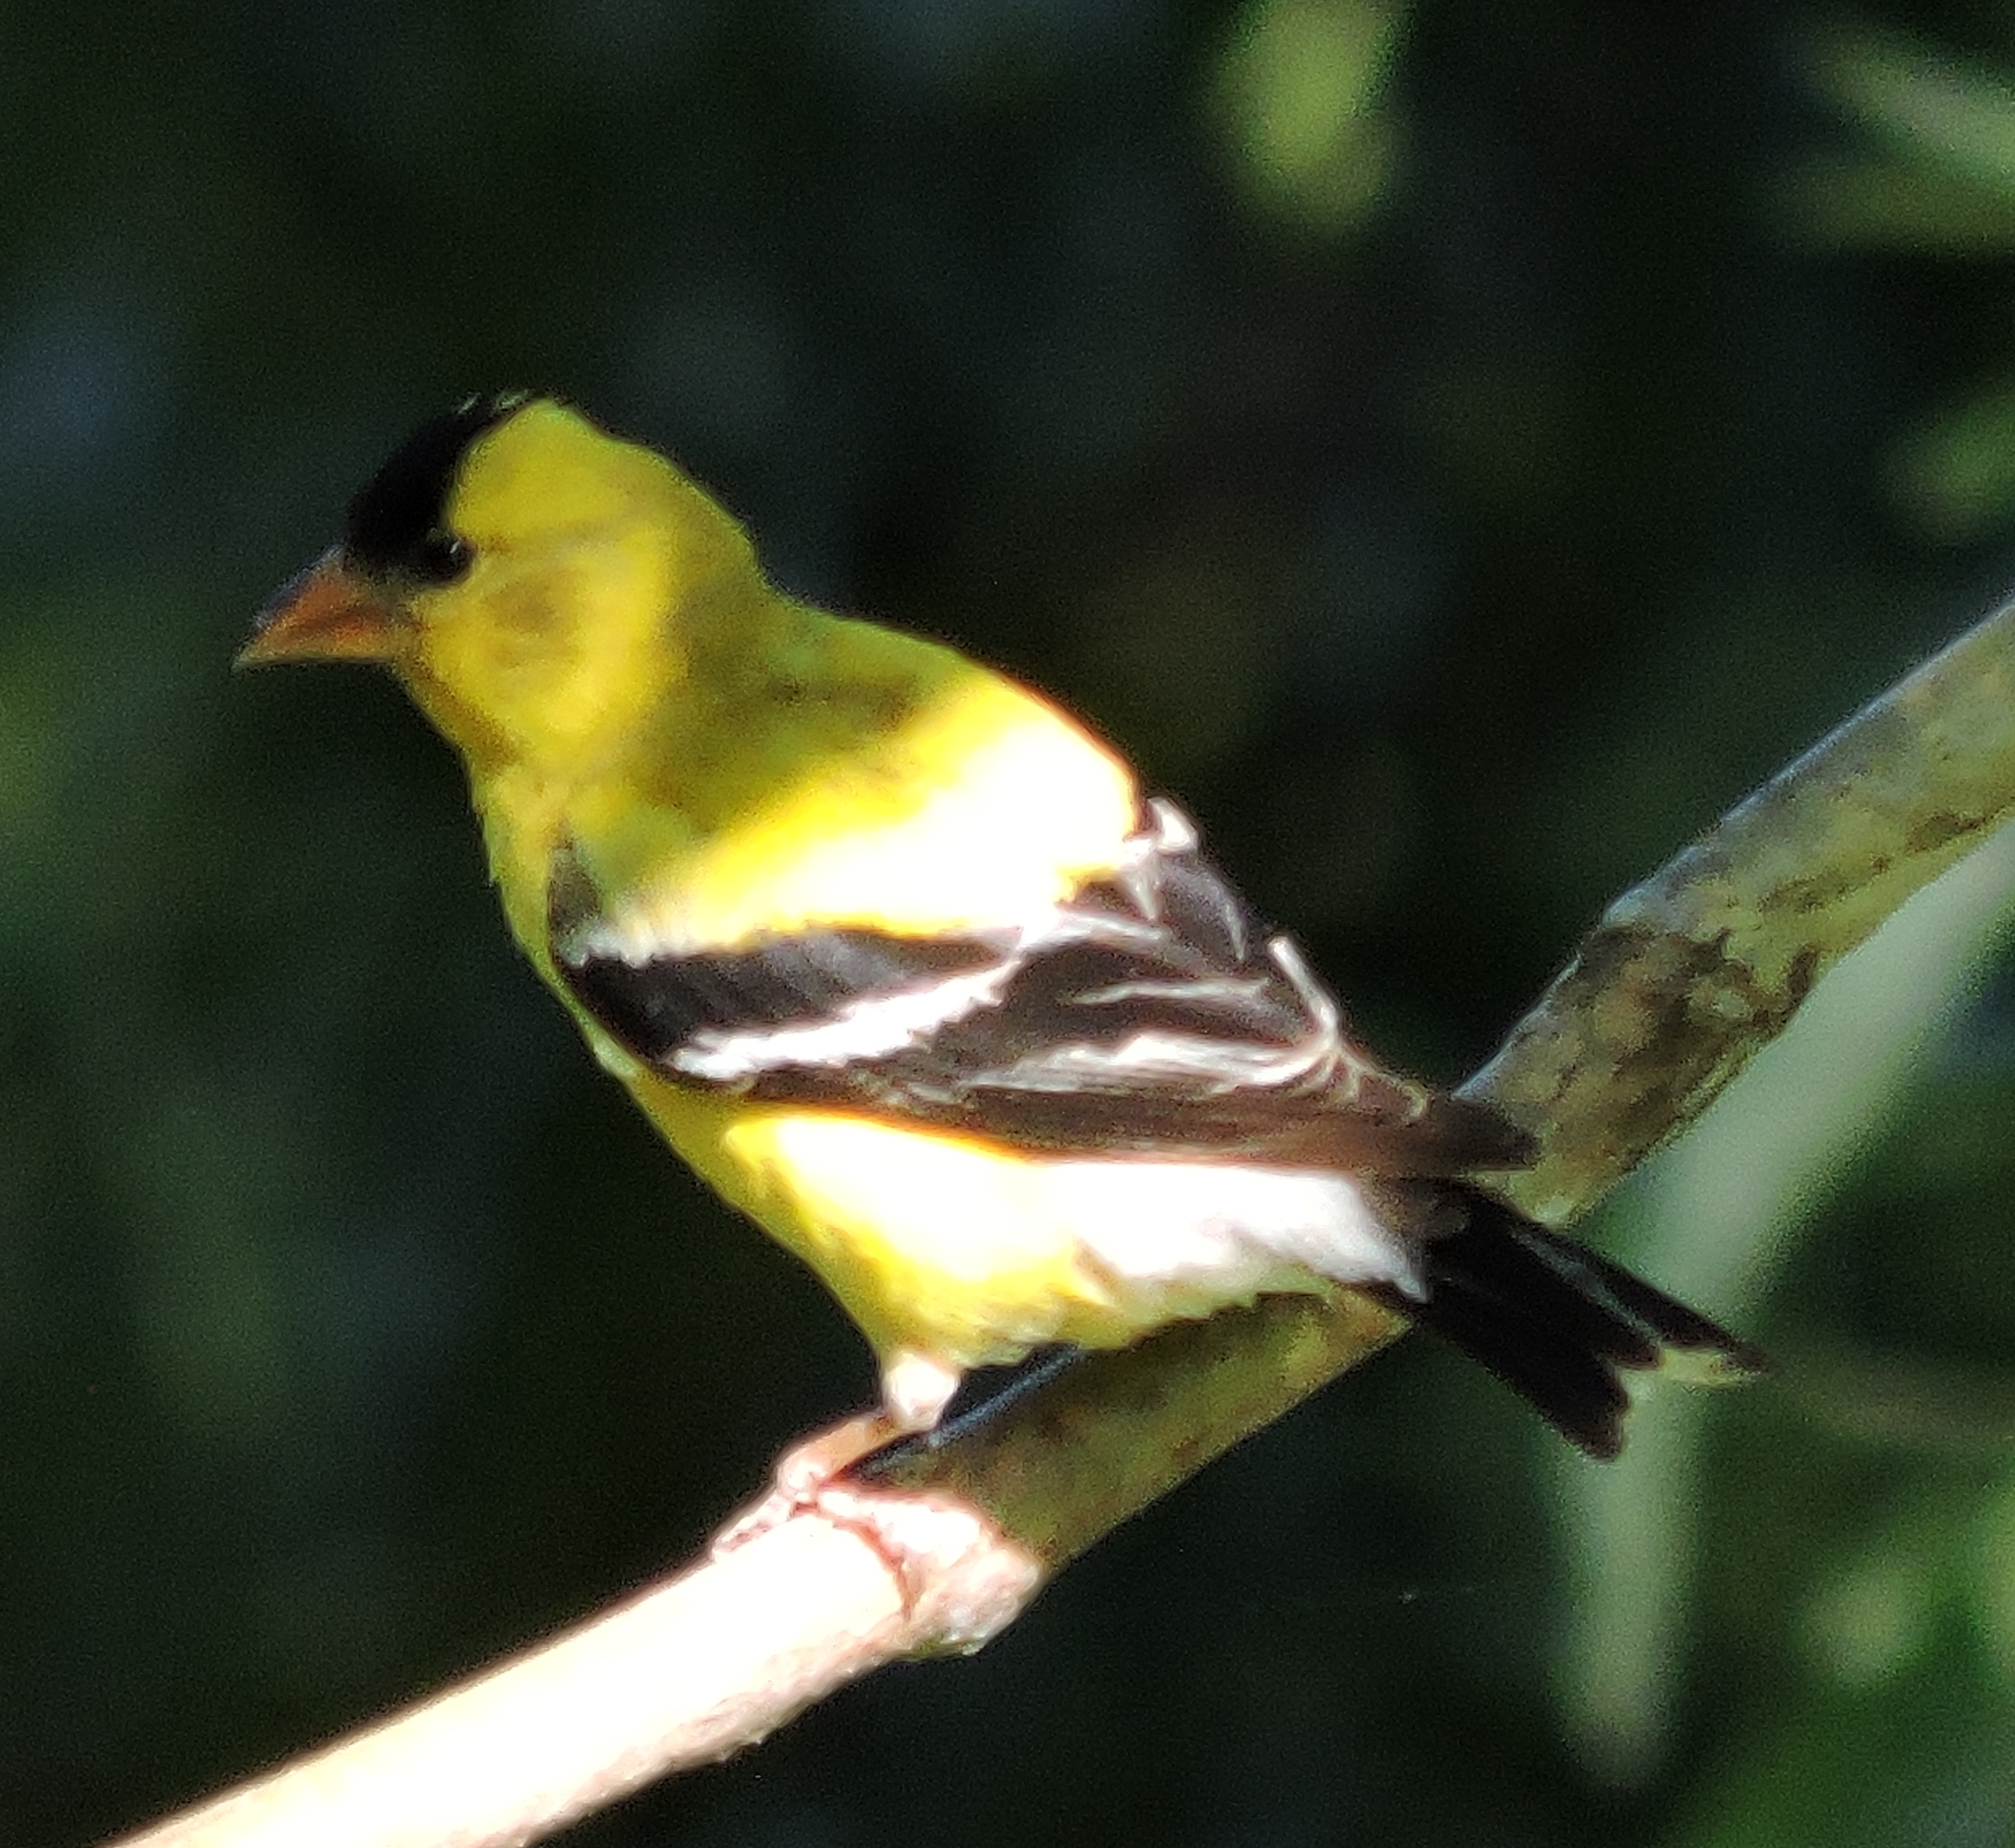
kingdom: Animalia
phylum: Chordata
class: Aves
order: Passeriformes
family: Fringillidae
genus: Spinus
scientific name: Spinus tristis
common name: American goldfinch
